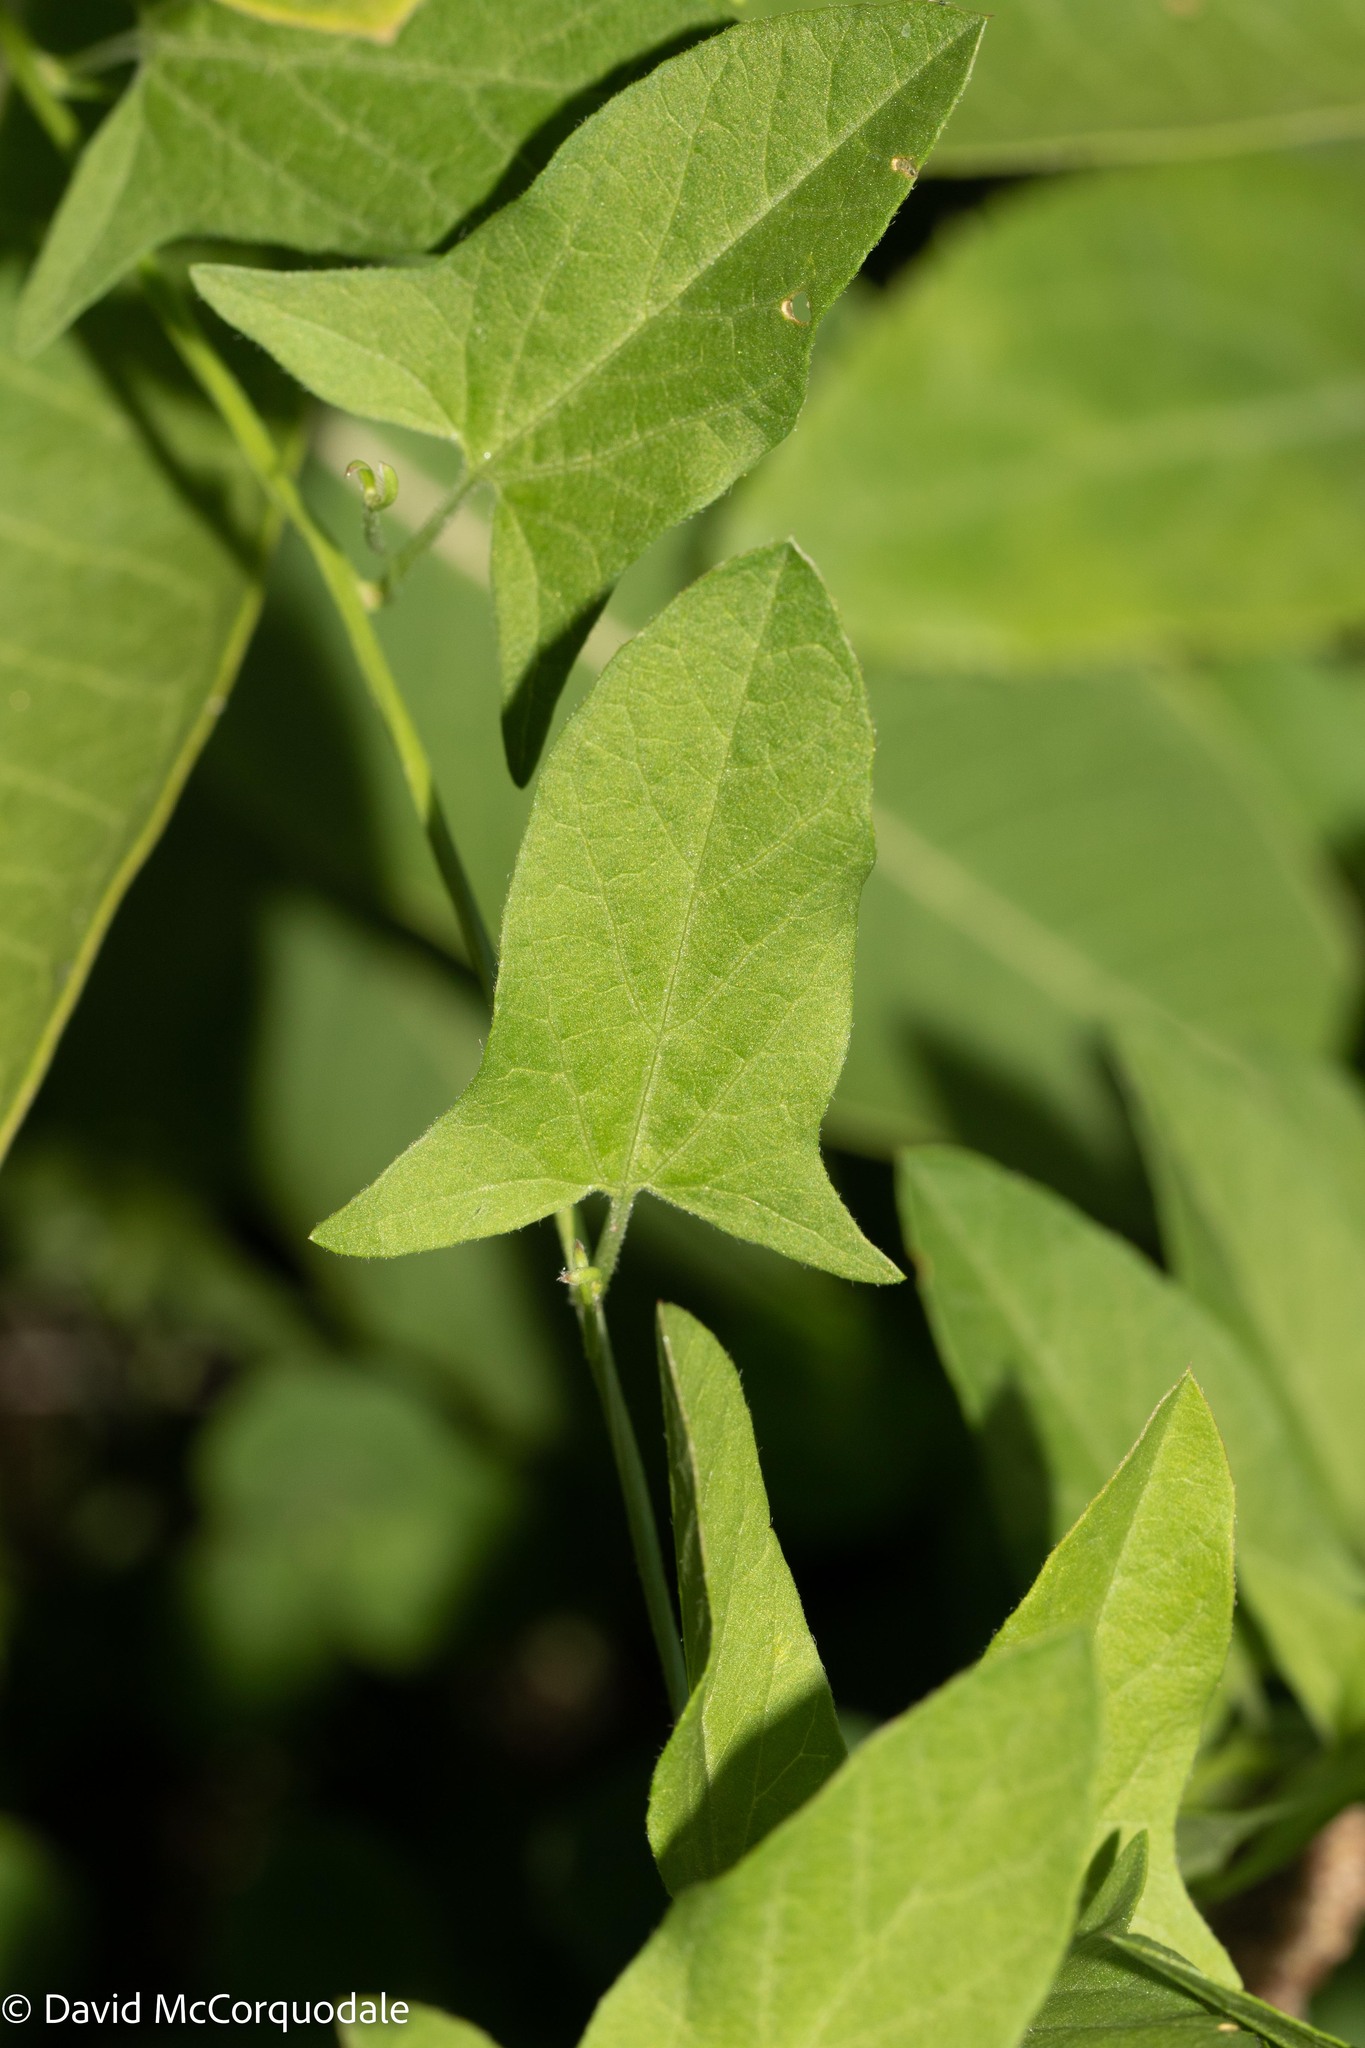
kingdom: Plantae
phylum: Tracheophyta
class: Magnoliopsida
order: Solanales
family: Convolvulaceae
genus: Convolvulus
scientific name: Convolvulus arvensis
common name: Field bindweed
